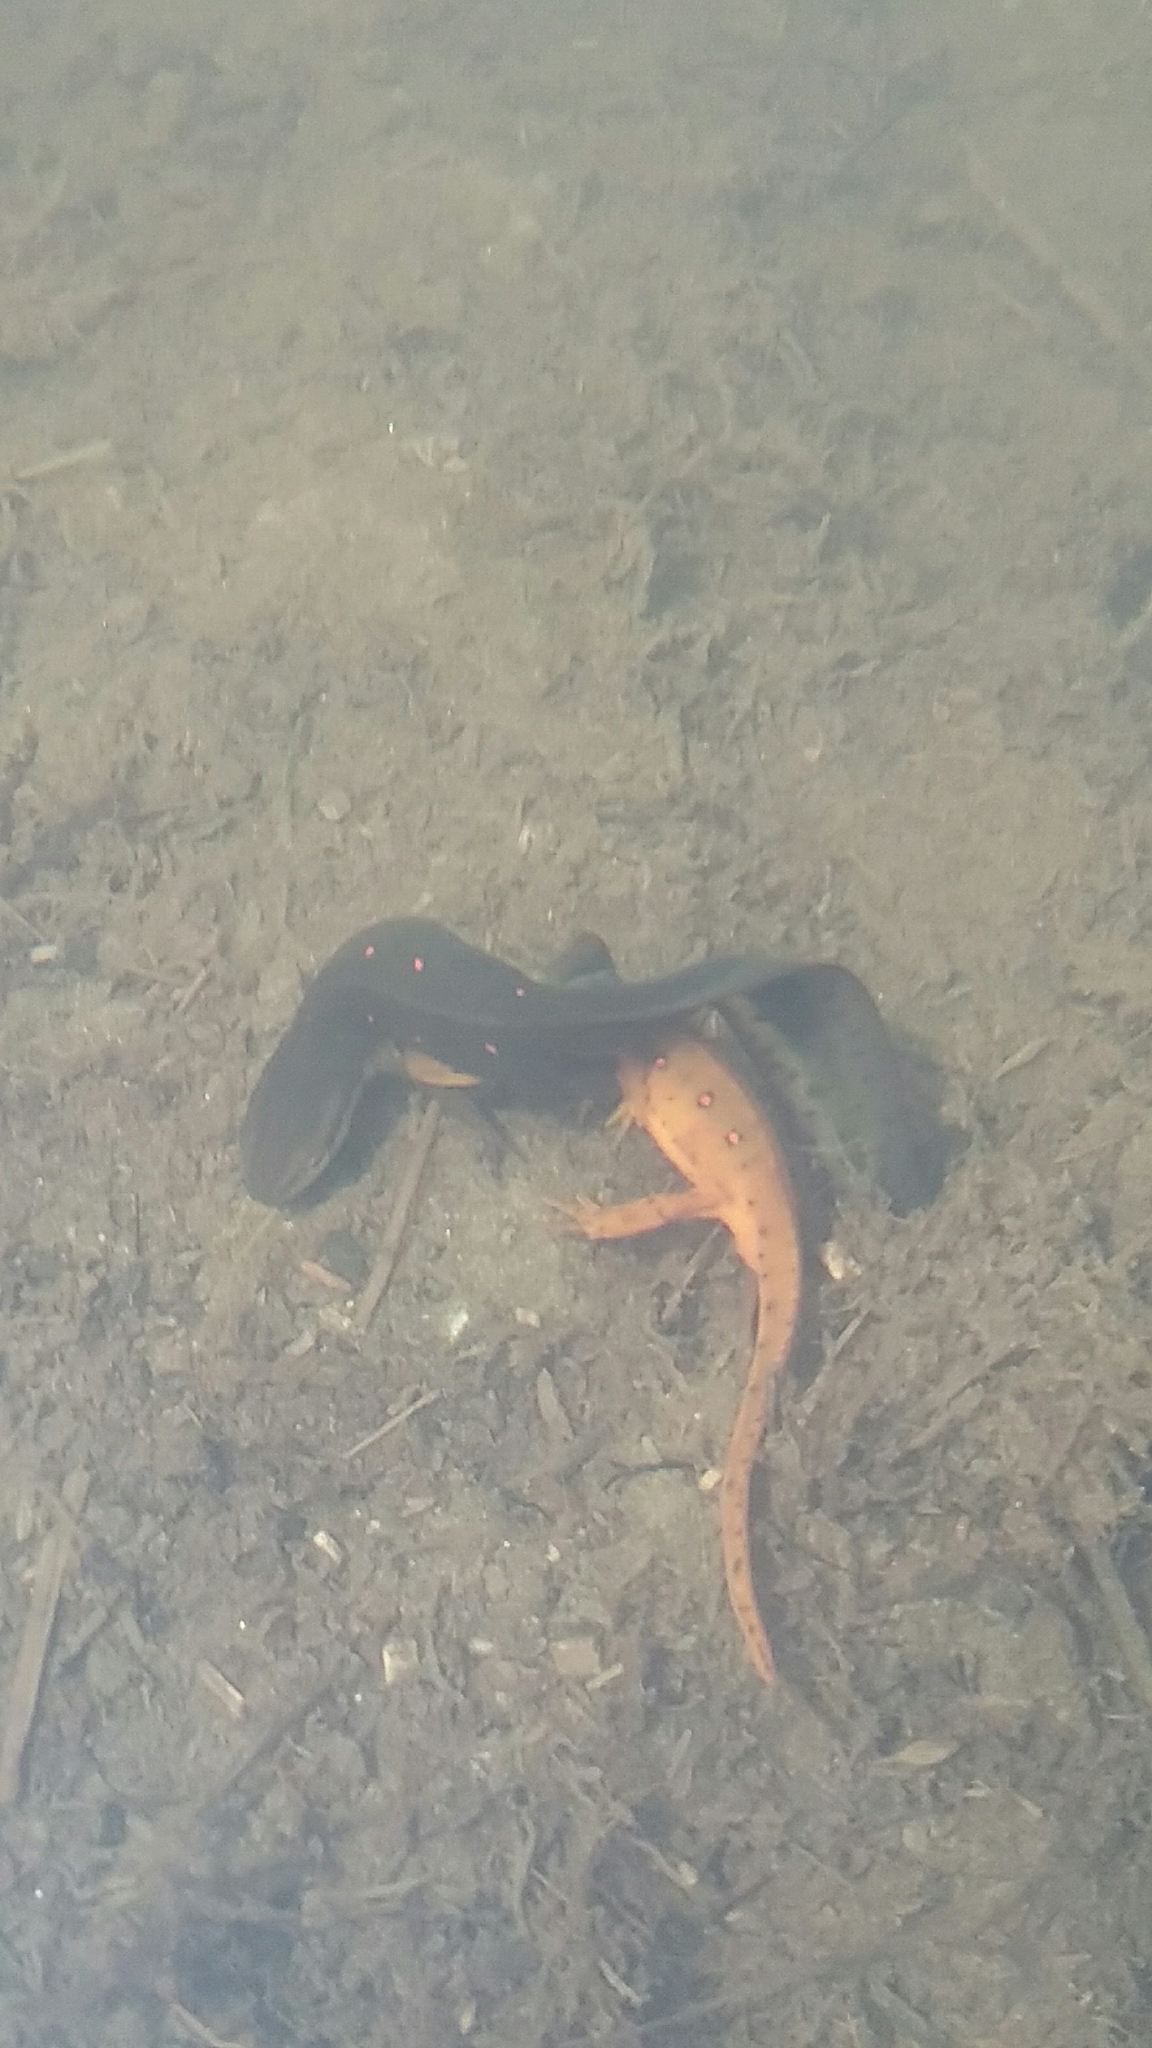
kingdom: Animalia
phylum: Chordata
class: Amphibia
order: Caudata
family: Salamandridae
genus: Notophthalmus
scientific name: Notophthalmus viridescens
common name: Eastern newt
